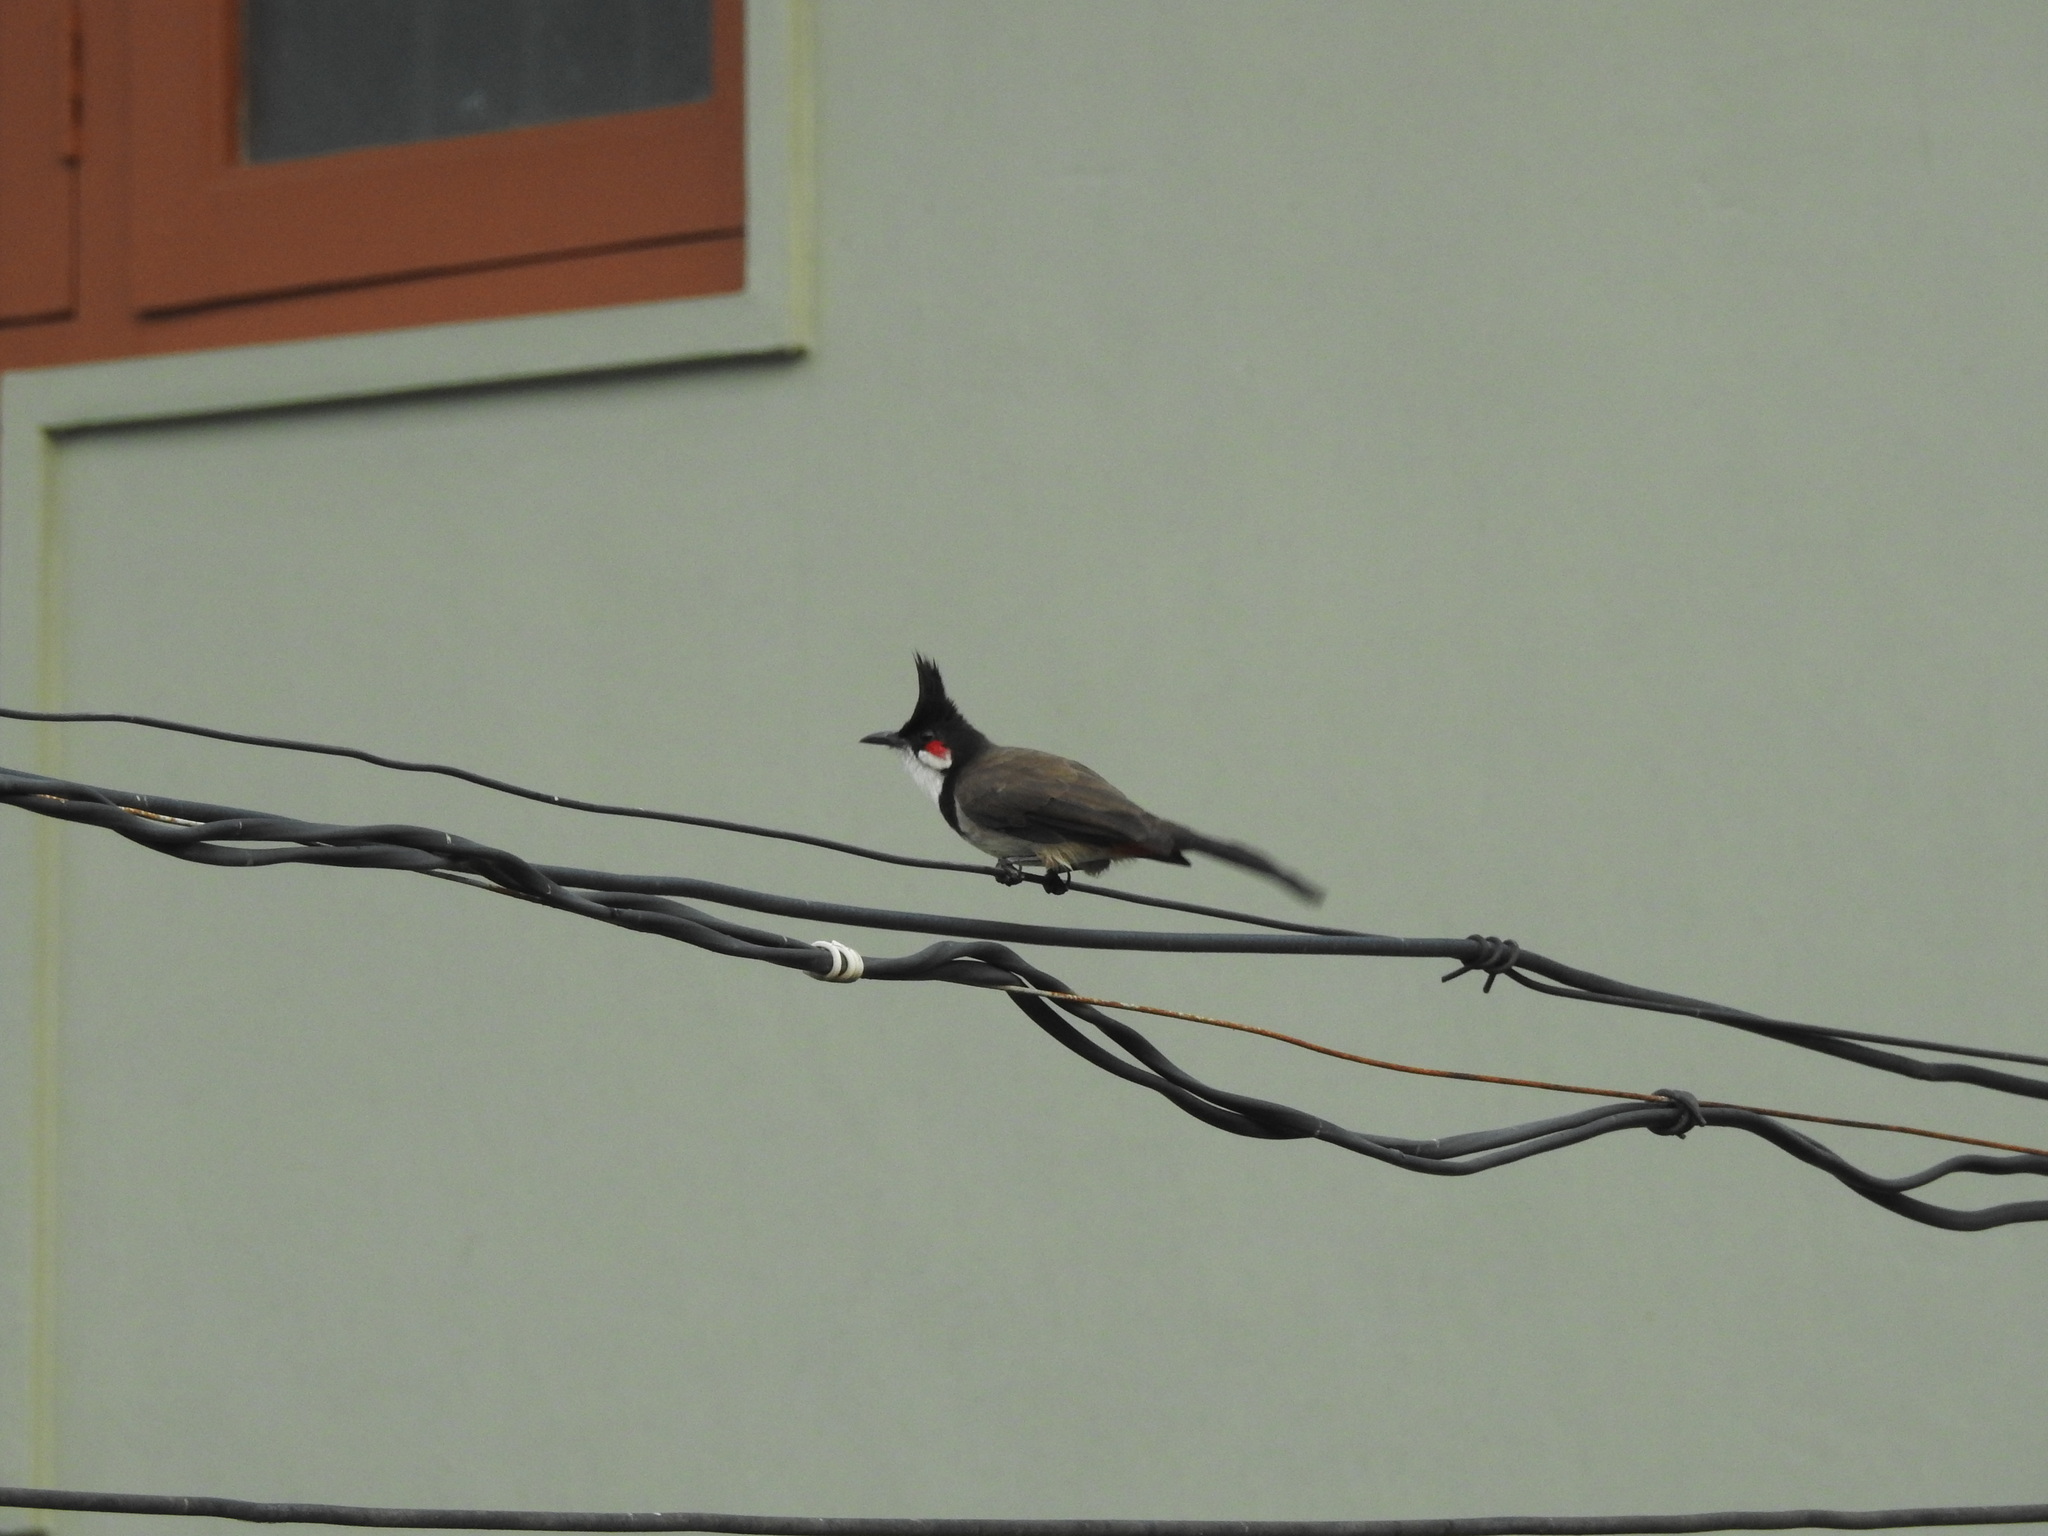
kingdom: Animalia
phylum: Chordata
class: Aves
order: Passeriformes
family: Pycnonotidae
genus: Pycnonotus
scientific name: Pycnonotus jocosus
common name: Red-whiskered bulbul
